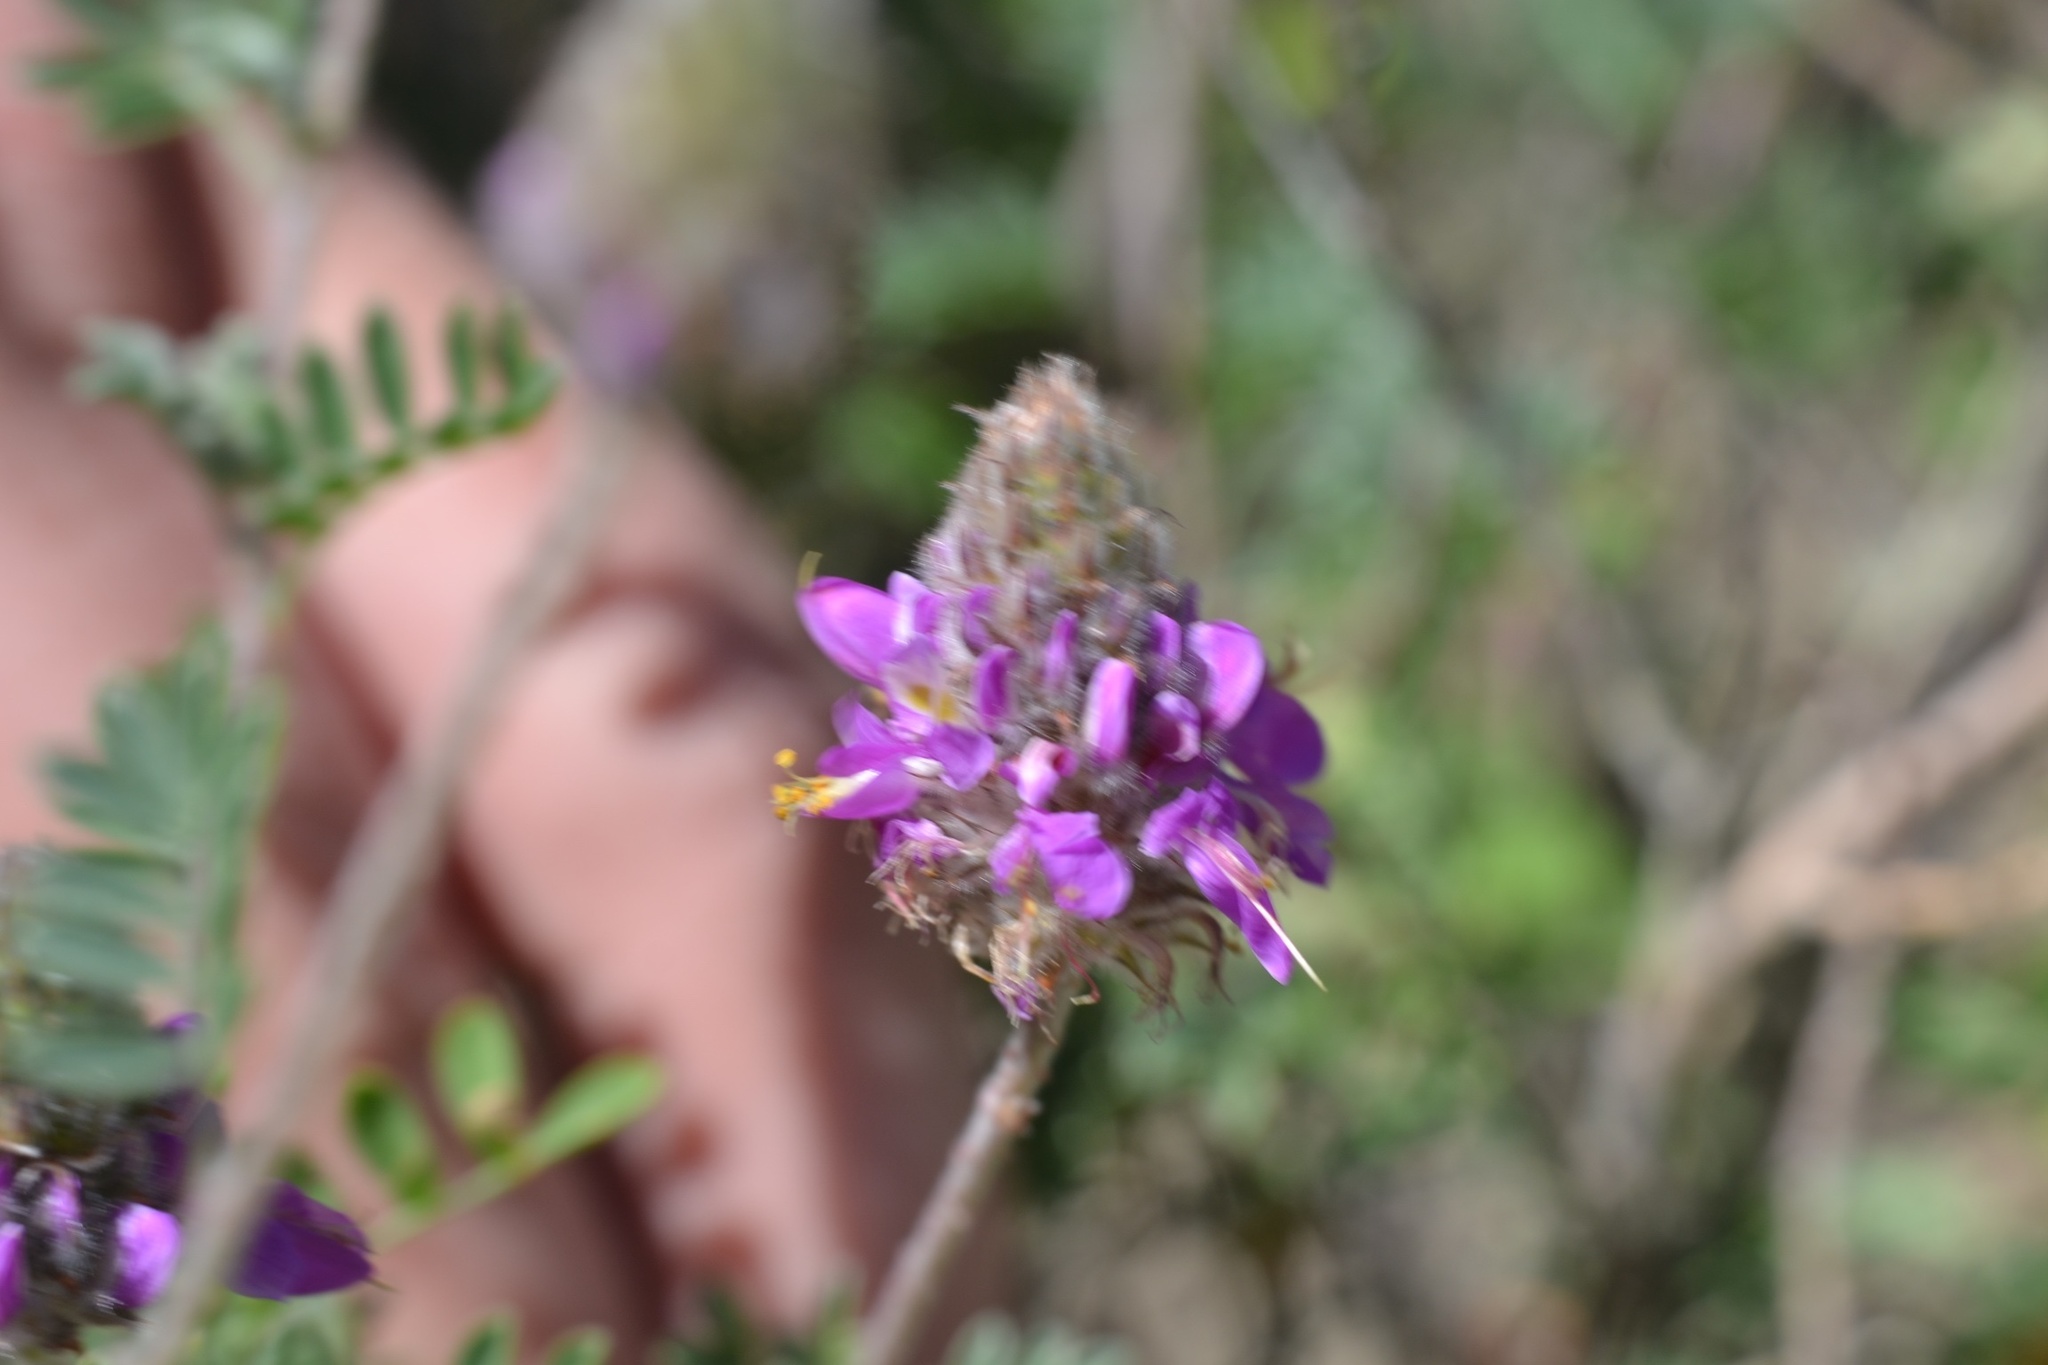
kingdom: Plantae
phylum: Tracheophyta
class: Magnoliopsida
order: Fabales
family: Fabaceae
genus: Dalea
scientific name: Dalea bicolor
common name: Silver prairie-clover
